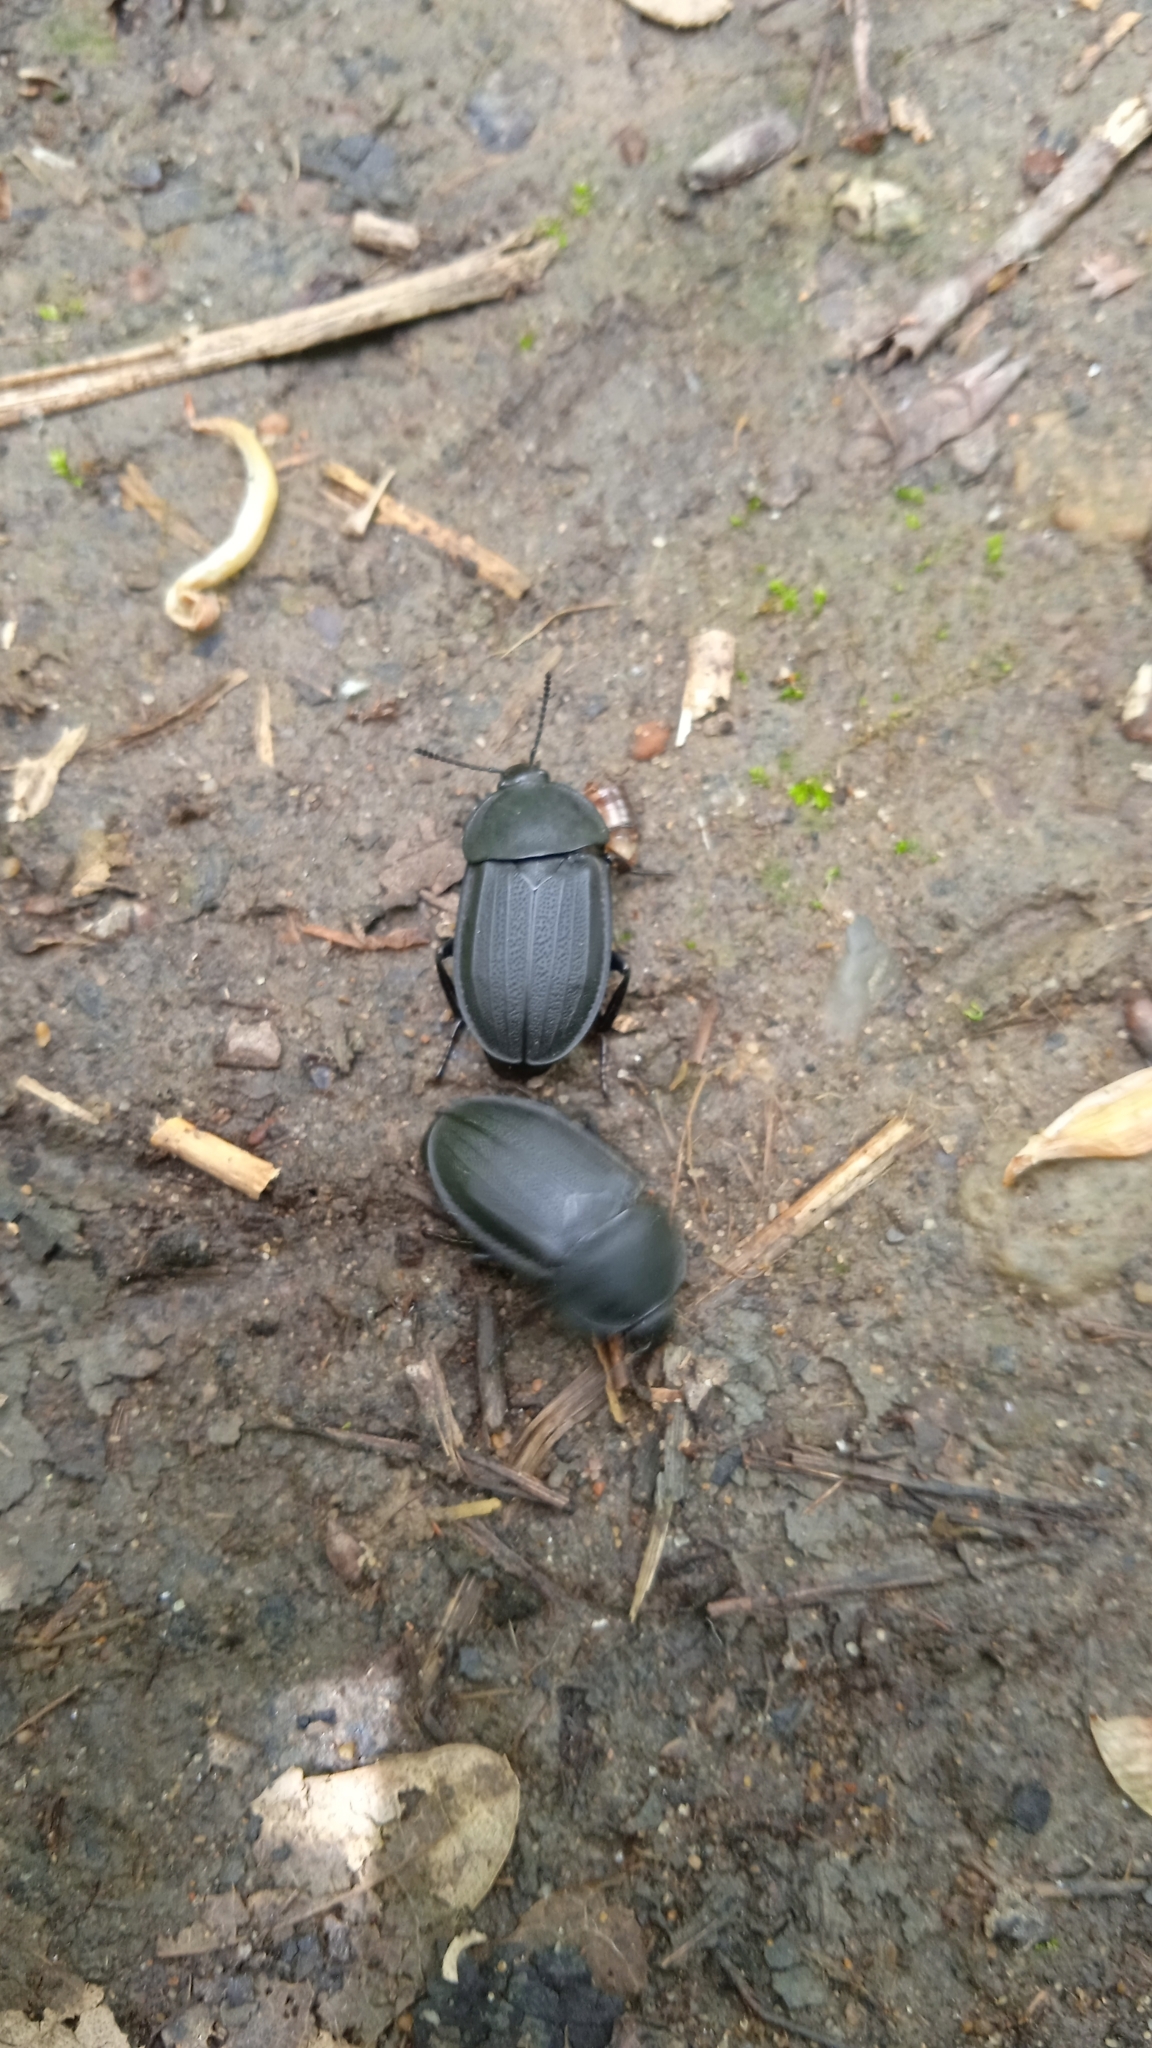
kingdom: Animalia
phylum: Arthropoda
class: Insecta
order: Coleoptera
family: Staphylinidae
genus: Silpha
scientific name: Silpha obscura
